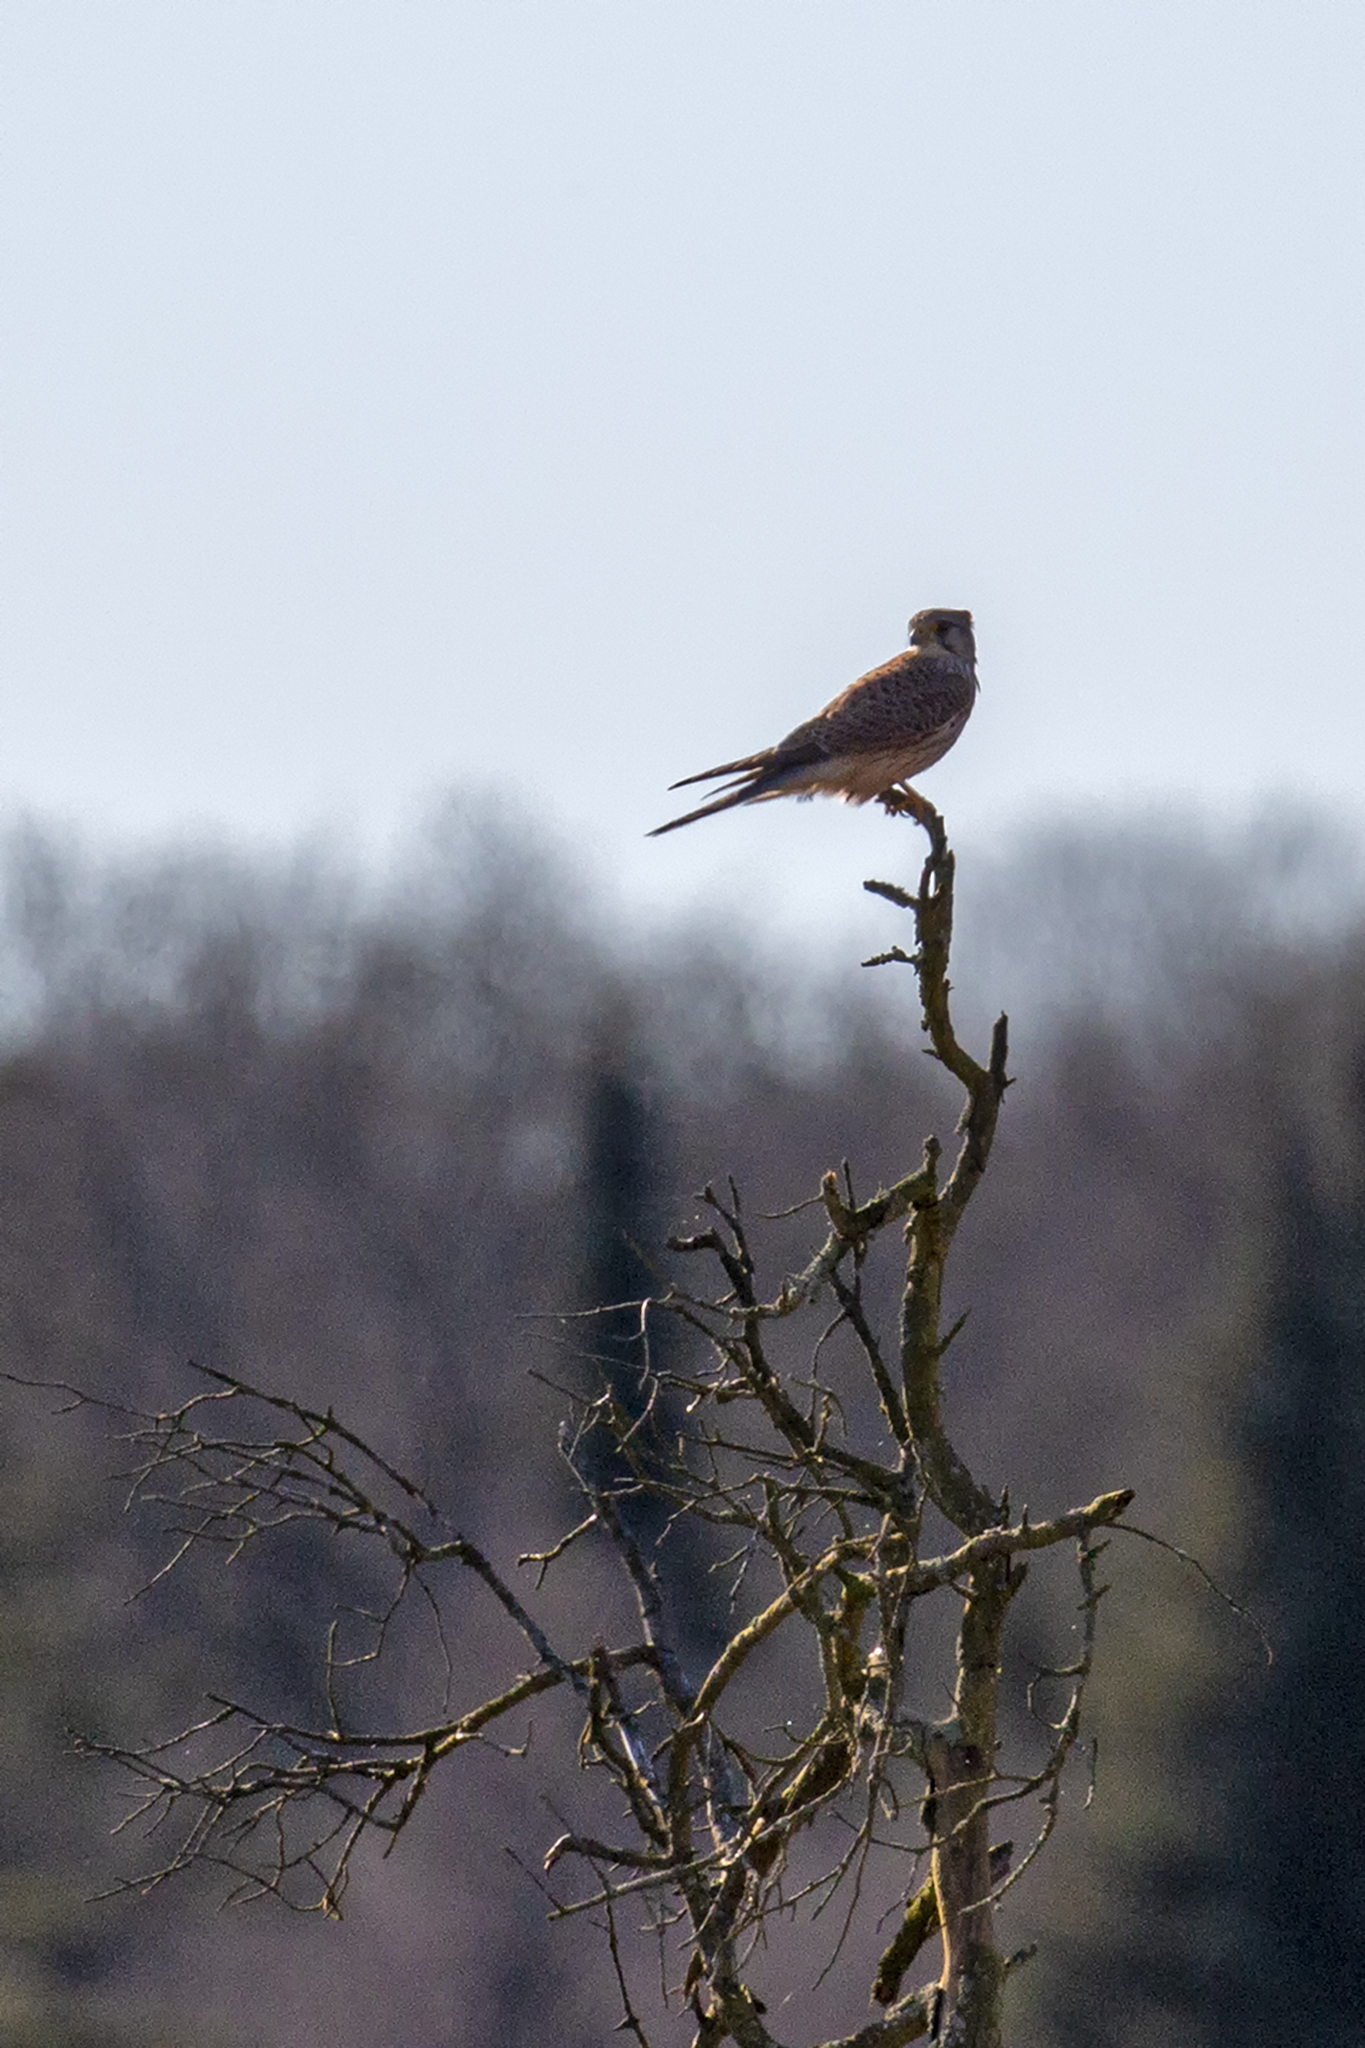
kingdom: Animalia
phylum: Chordata
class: Aves
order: Falconiformes
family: Falconidae
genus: Falco
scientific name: Falco tinnunculus
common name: Common kestrel
